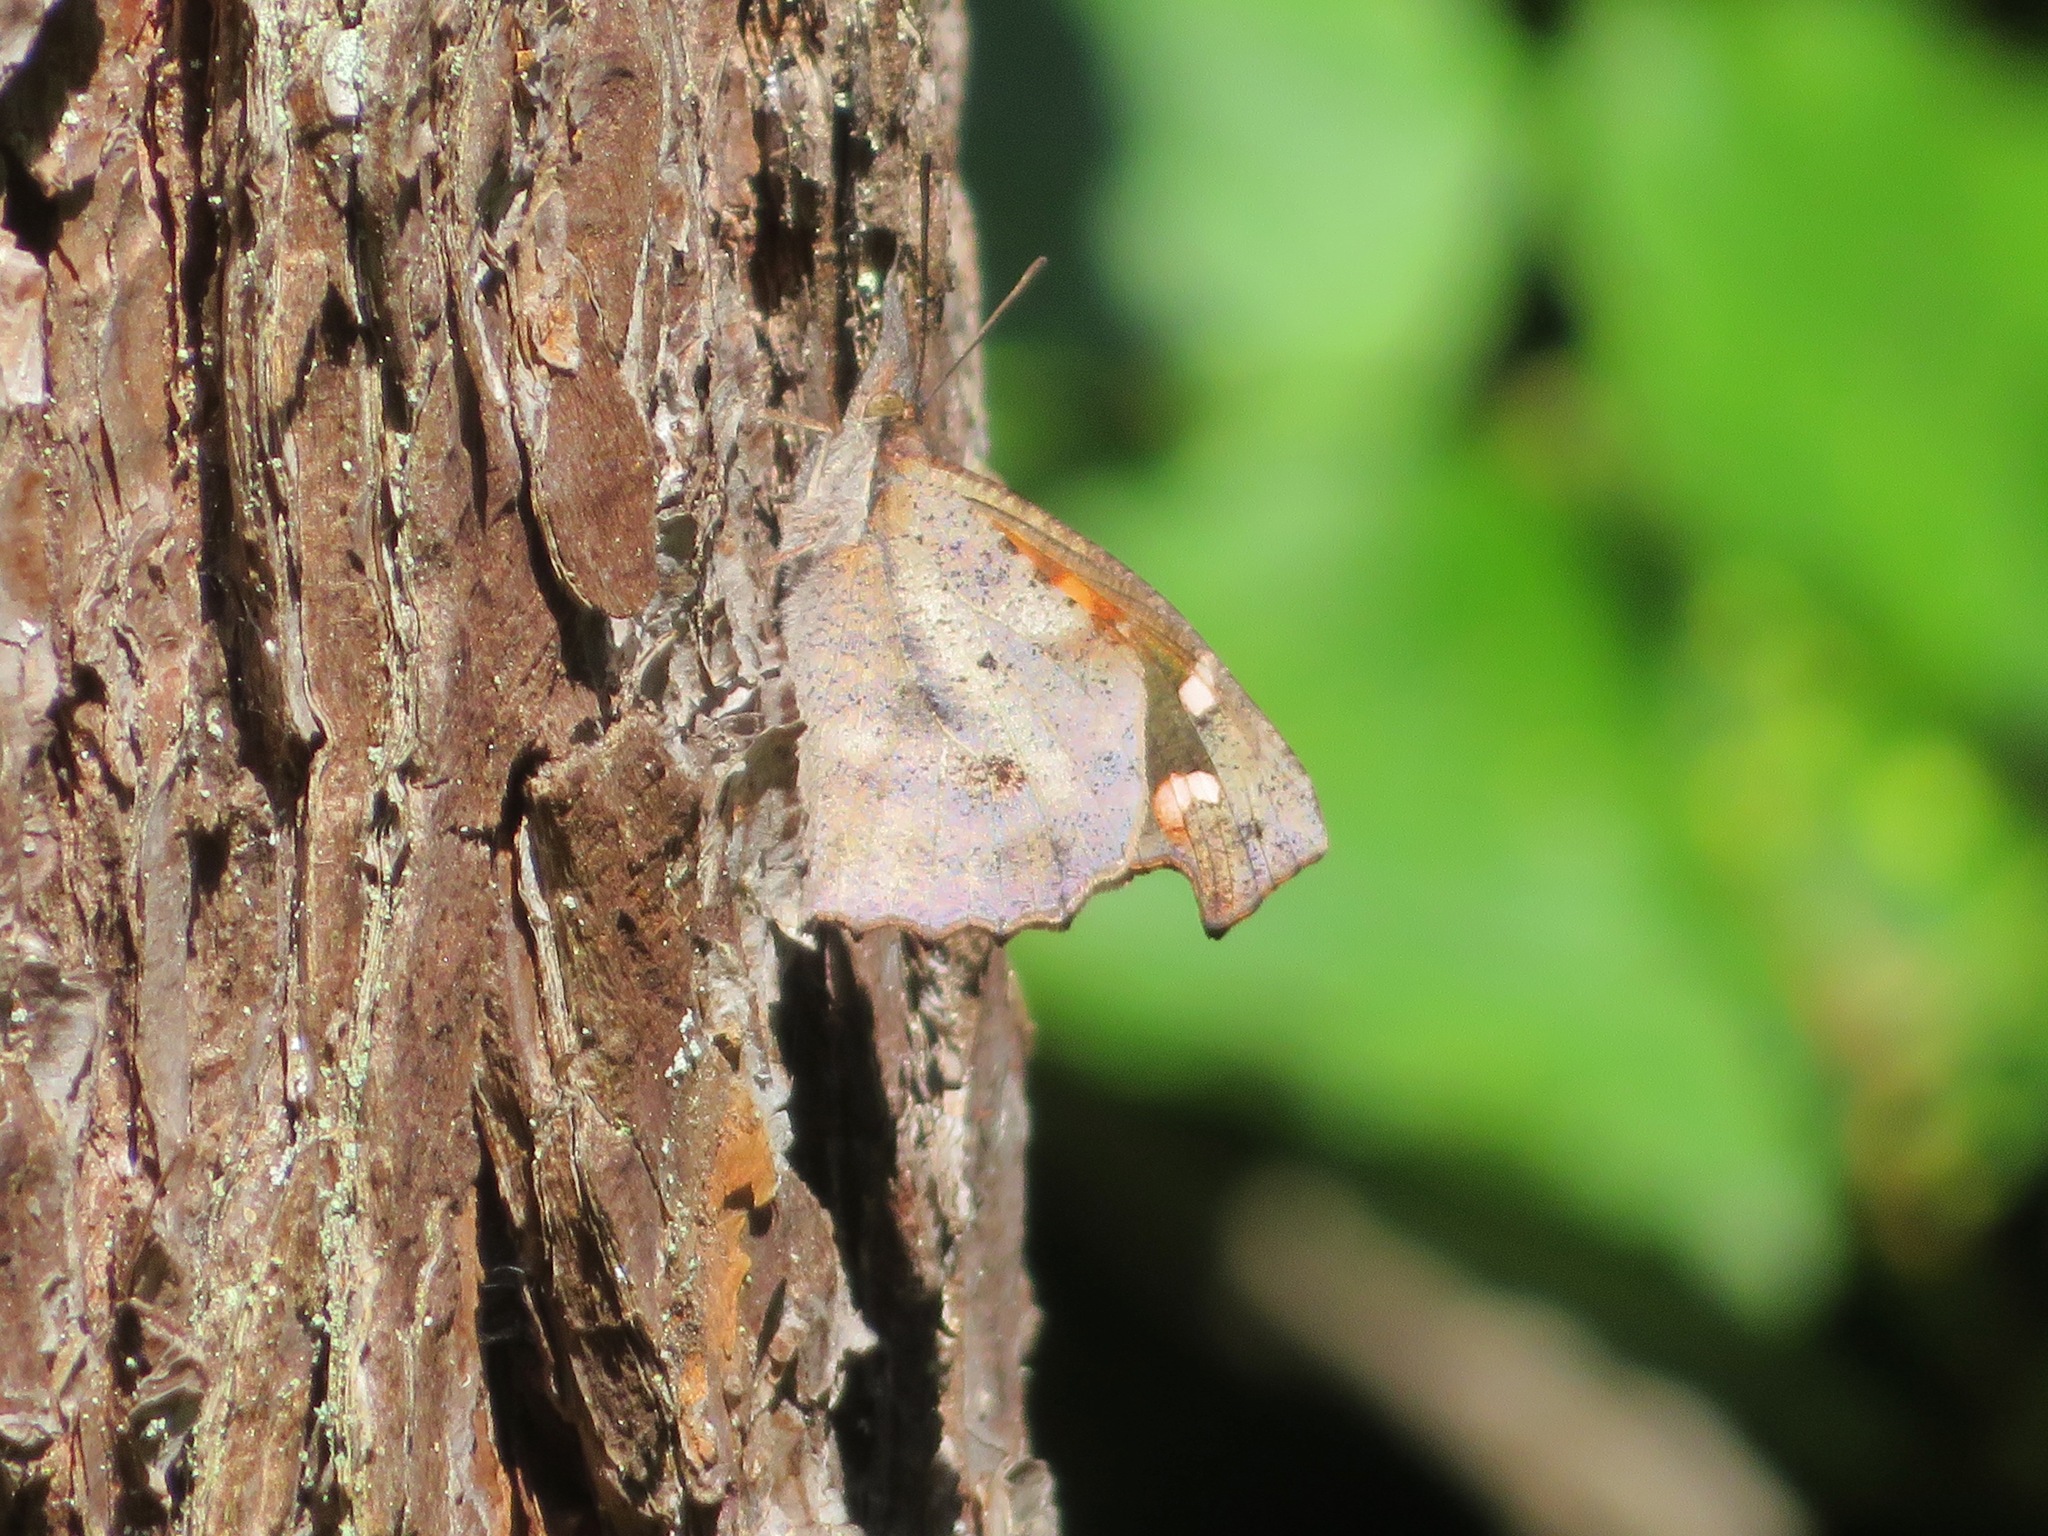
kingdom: Animalia
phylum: Arthropoda
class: Insecta
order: Lepidoptera
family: Nymphalidae
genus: Libythea
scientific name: Libythea lepita
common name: Common beak
